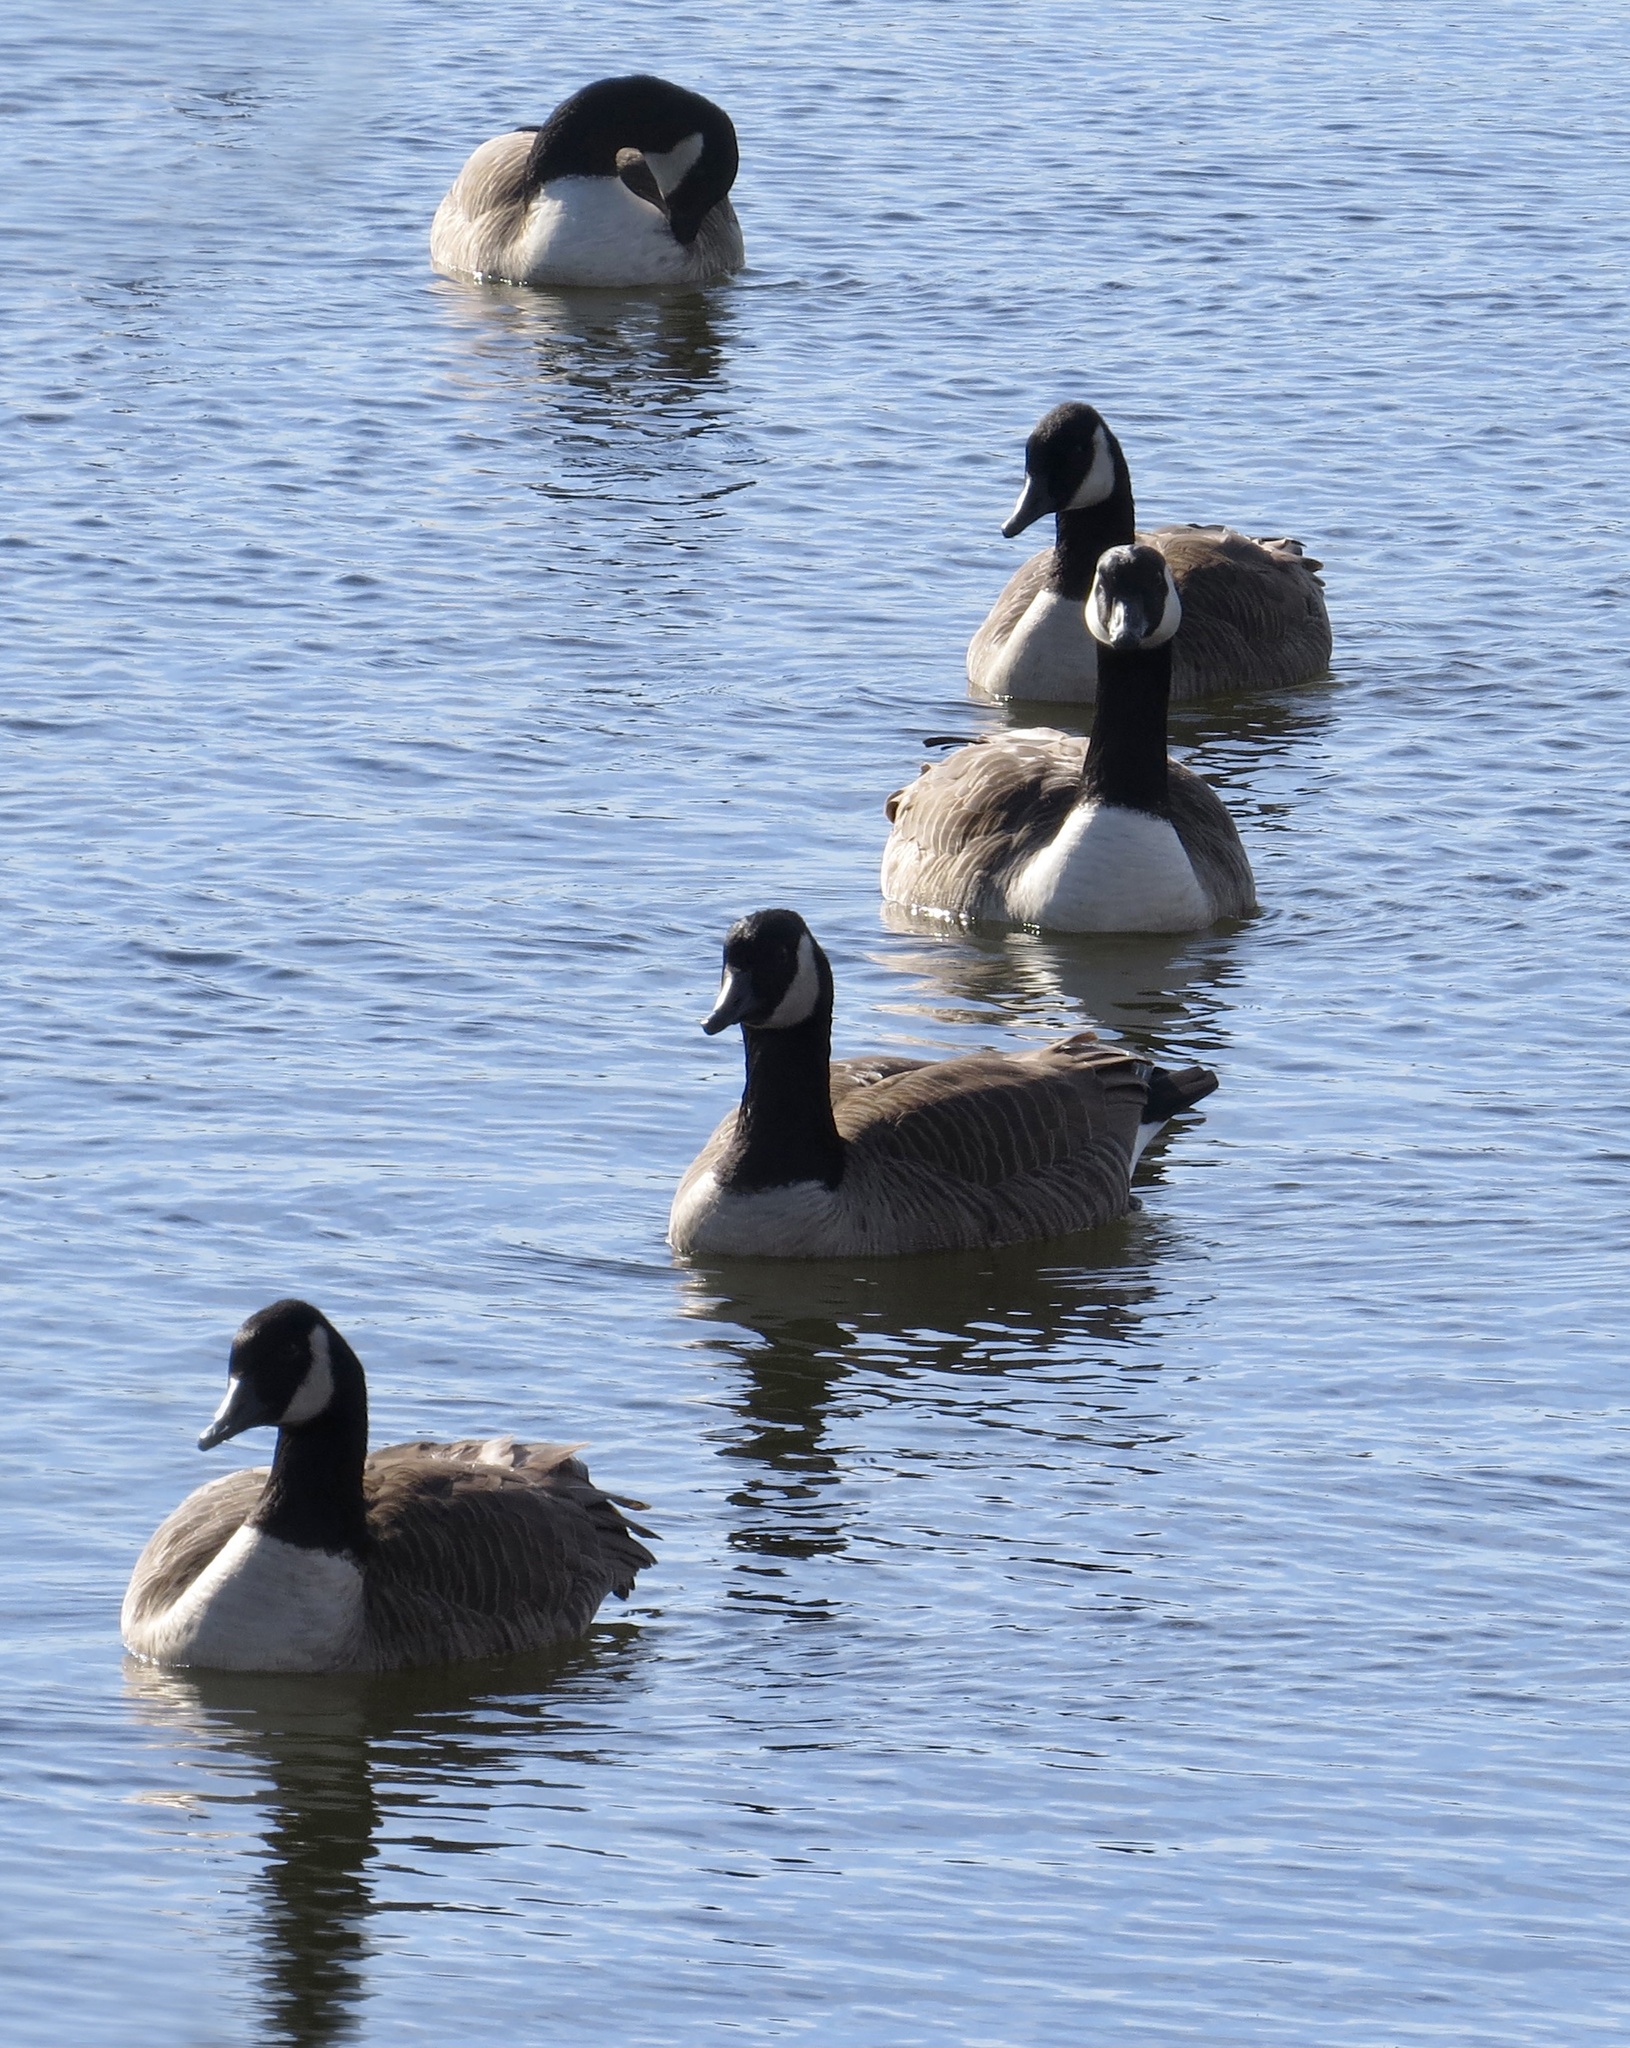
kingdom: Animalia
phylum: Chordata
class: Aves
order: Anseriformes
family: Anatidae
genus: Branta
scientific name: Branta canadensis
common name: Canada goose
